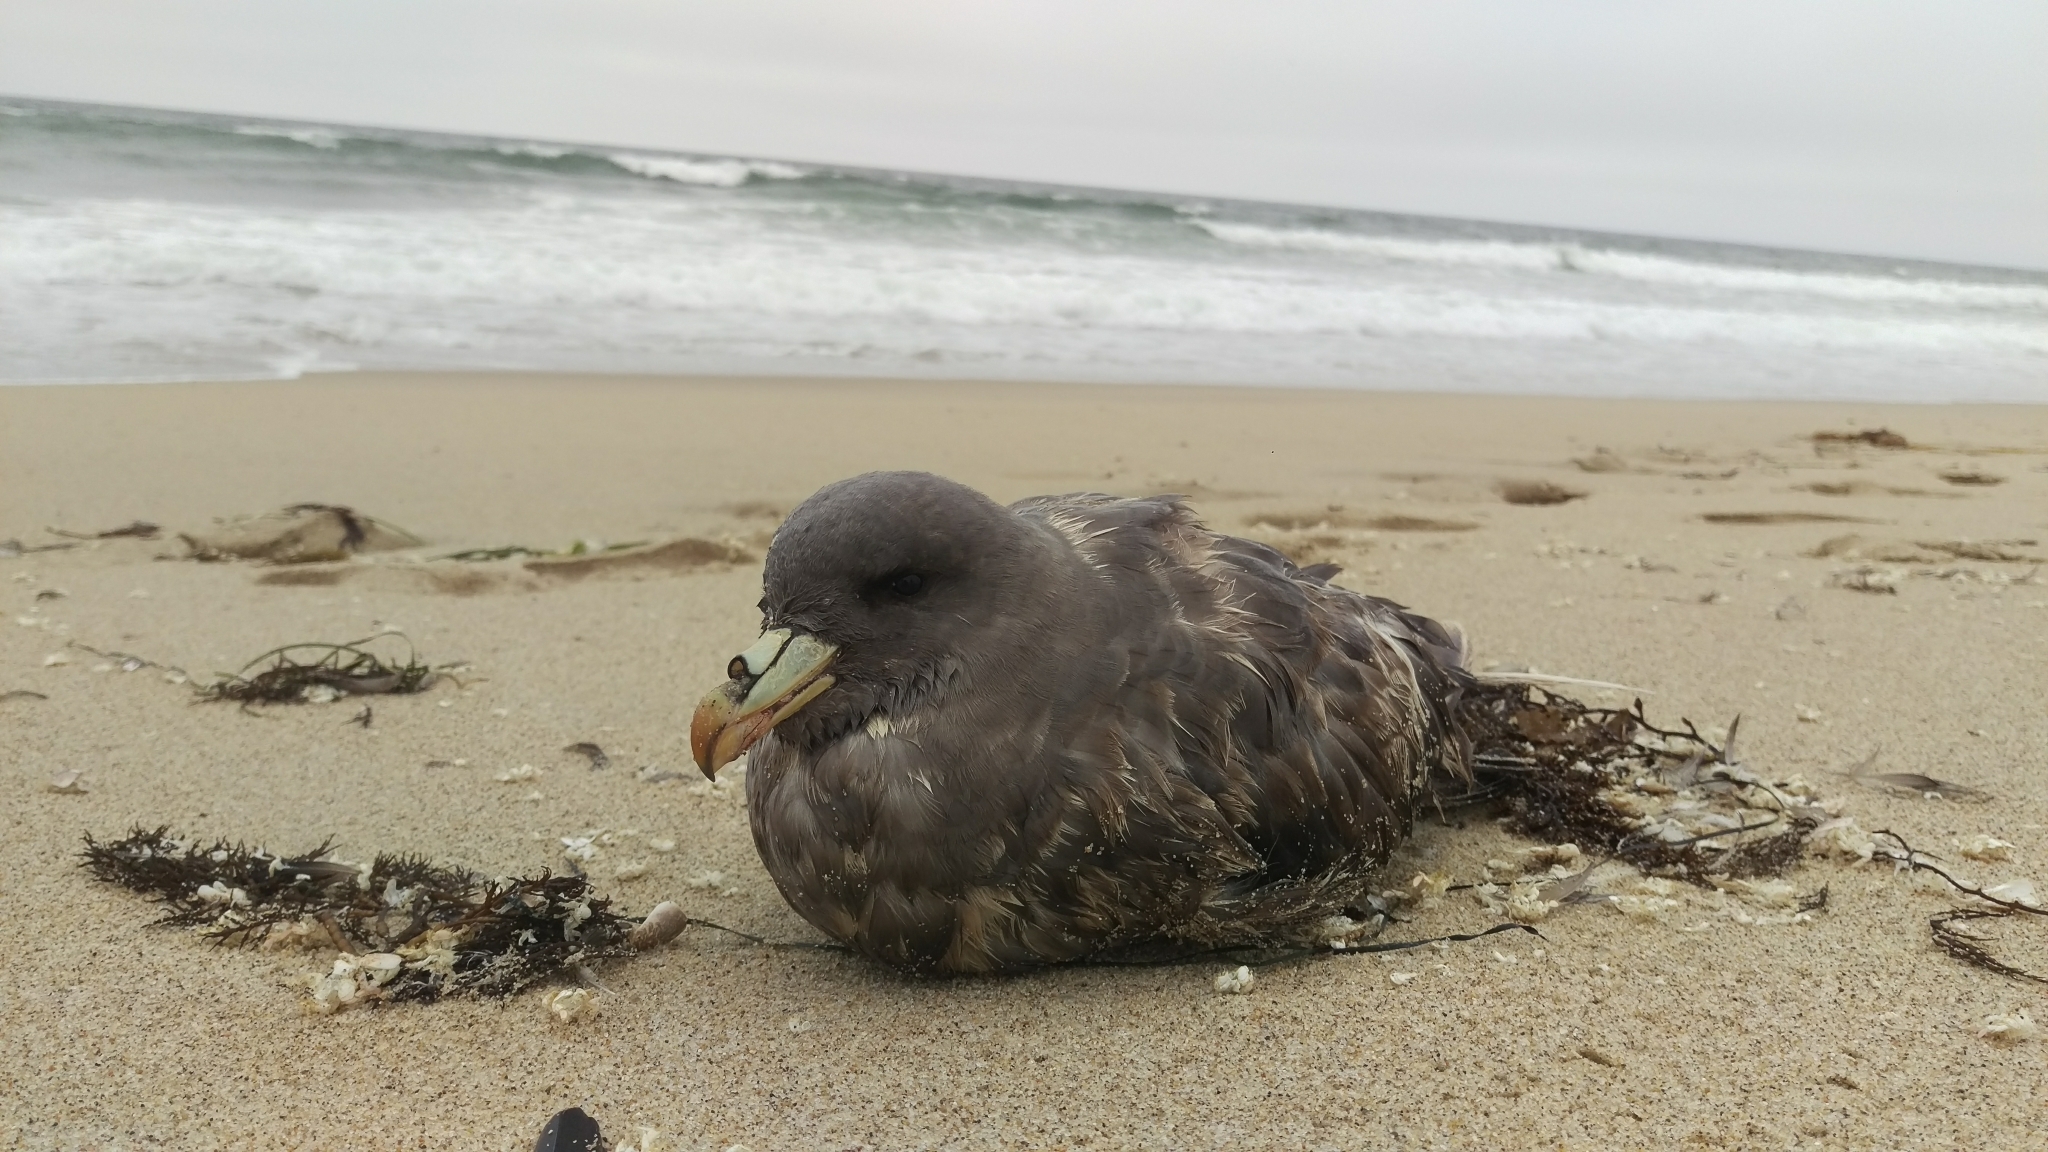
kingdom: Animalia
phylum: Chordata
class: Aves
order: Procellariiformes
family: Procellariidae
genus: Fulmarus
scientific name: Fulmarus glacialis
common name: Northern fulmar
